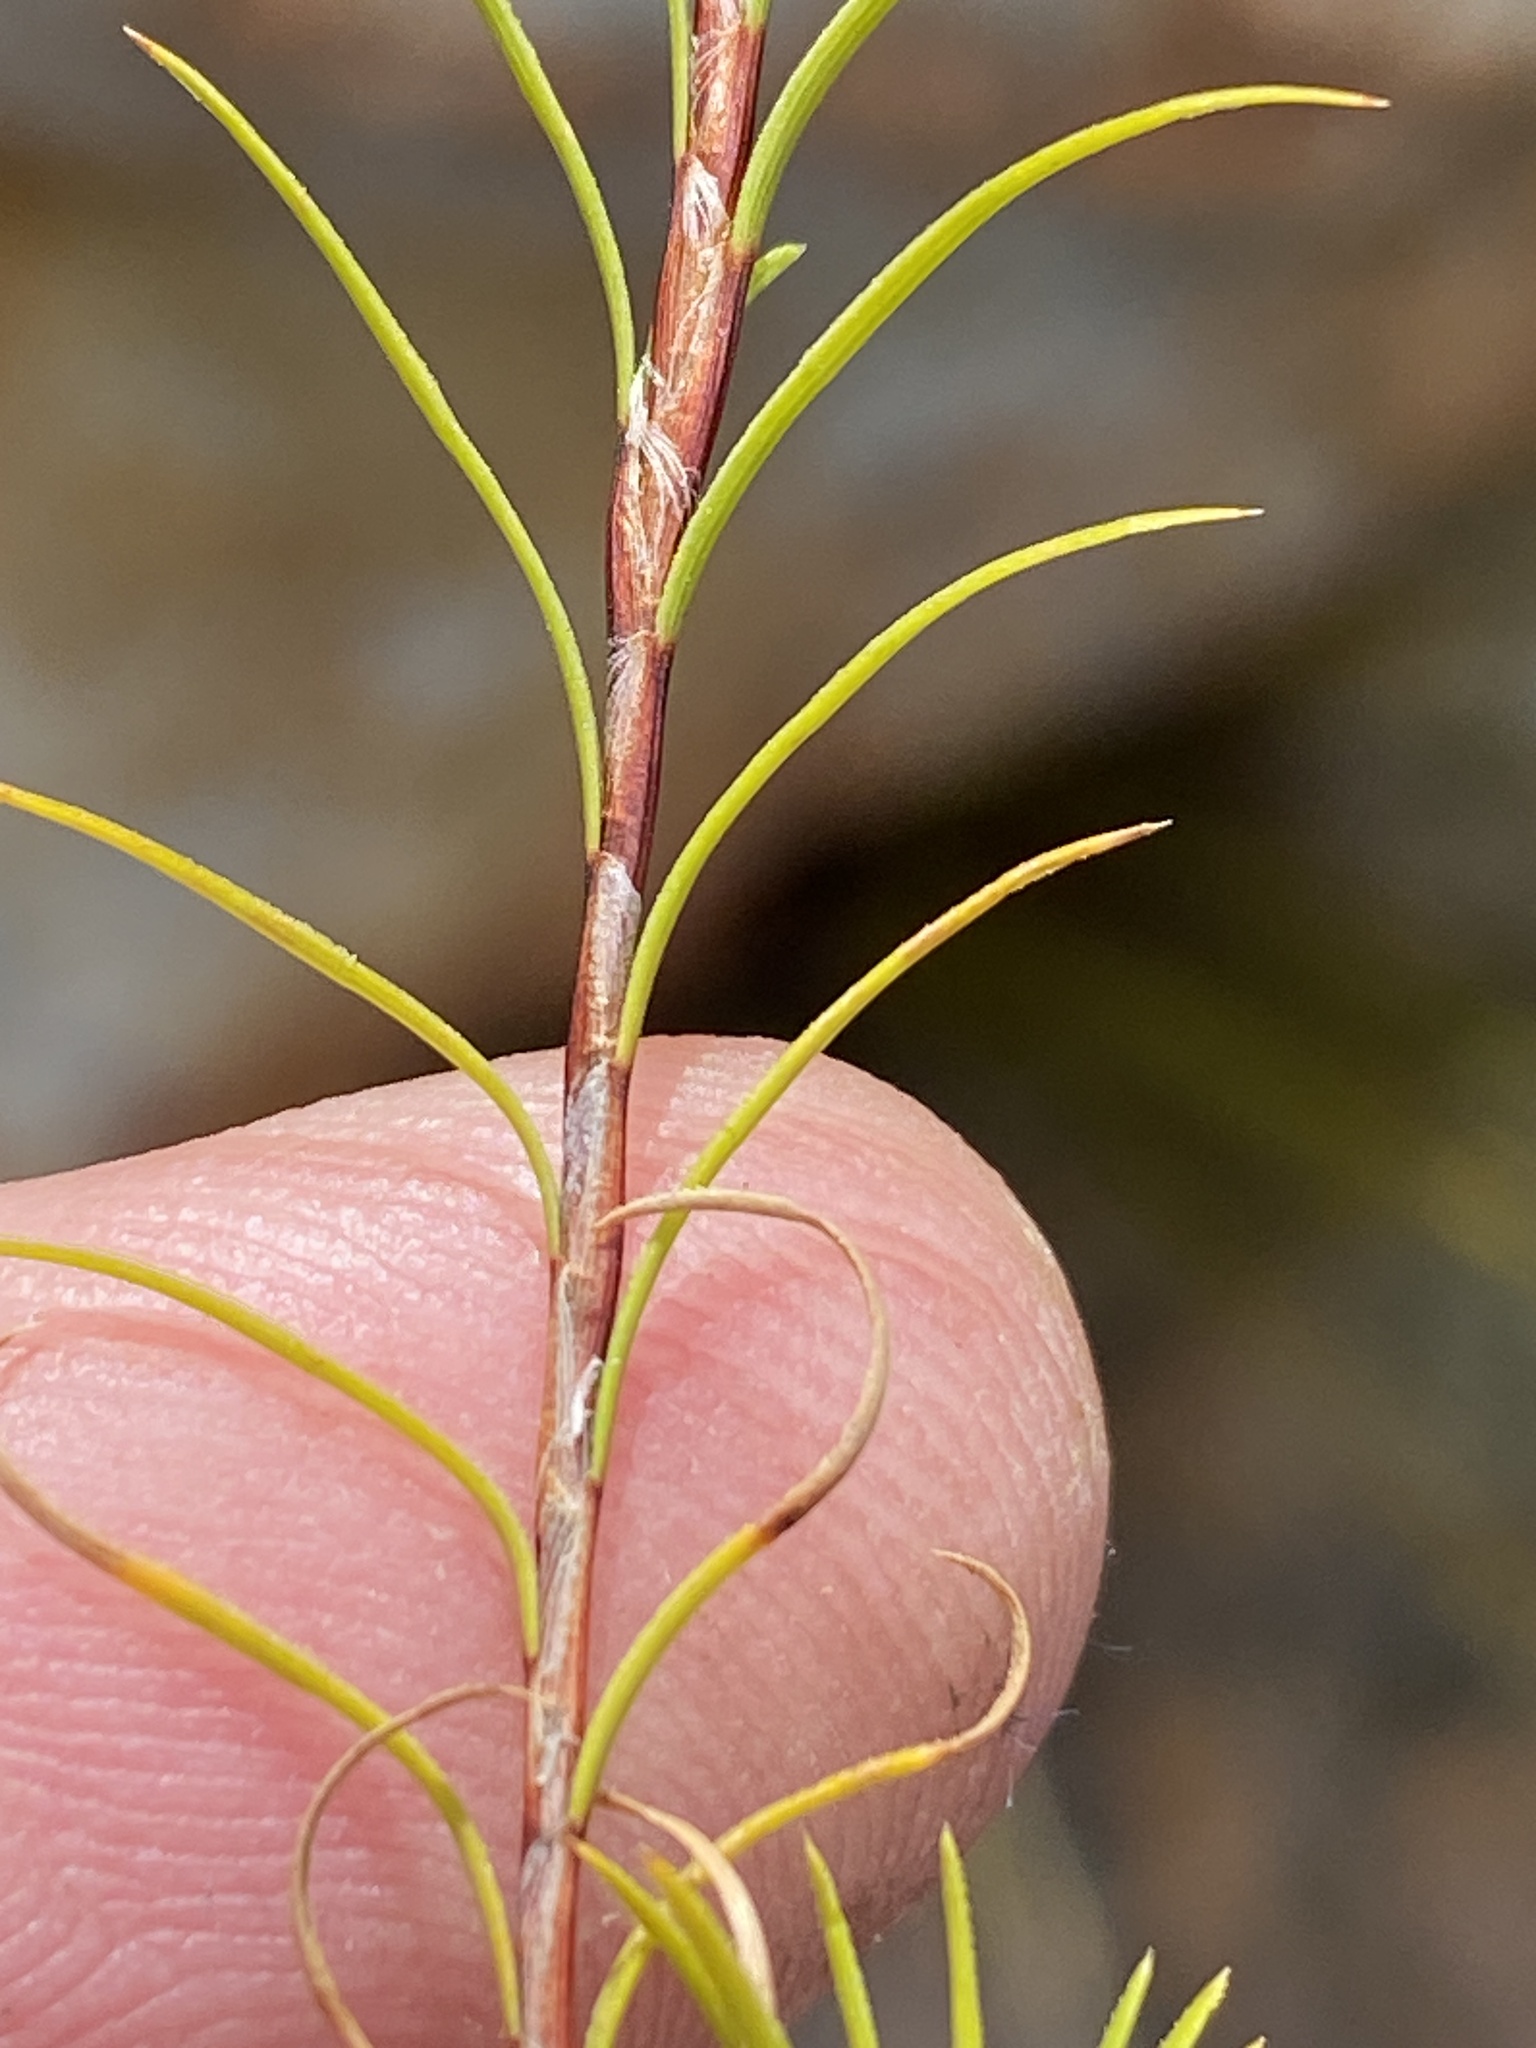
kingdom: Plantae
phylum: Tracheophyta
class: Liliopsida
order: Poales
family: Cyperaceae
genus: Ficinia
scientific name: Ficinia ramosissima
